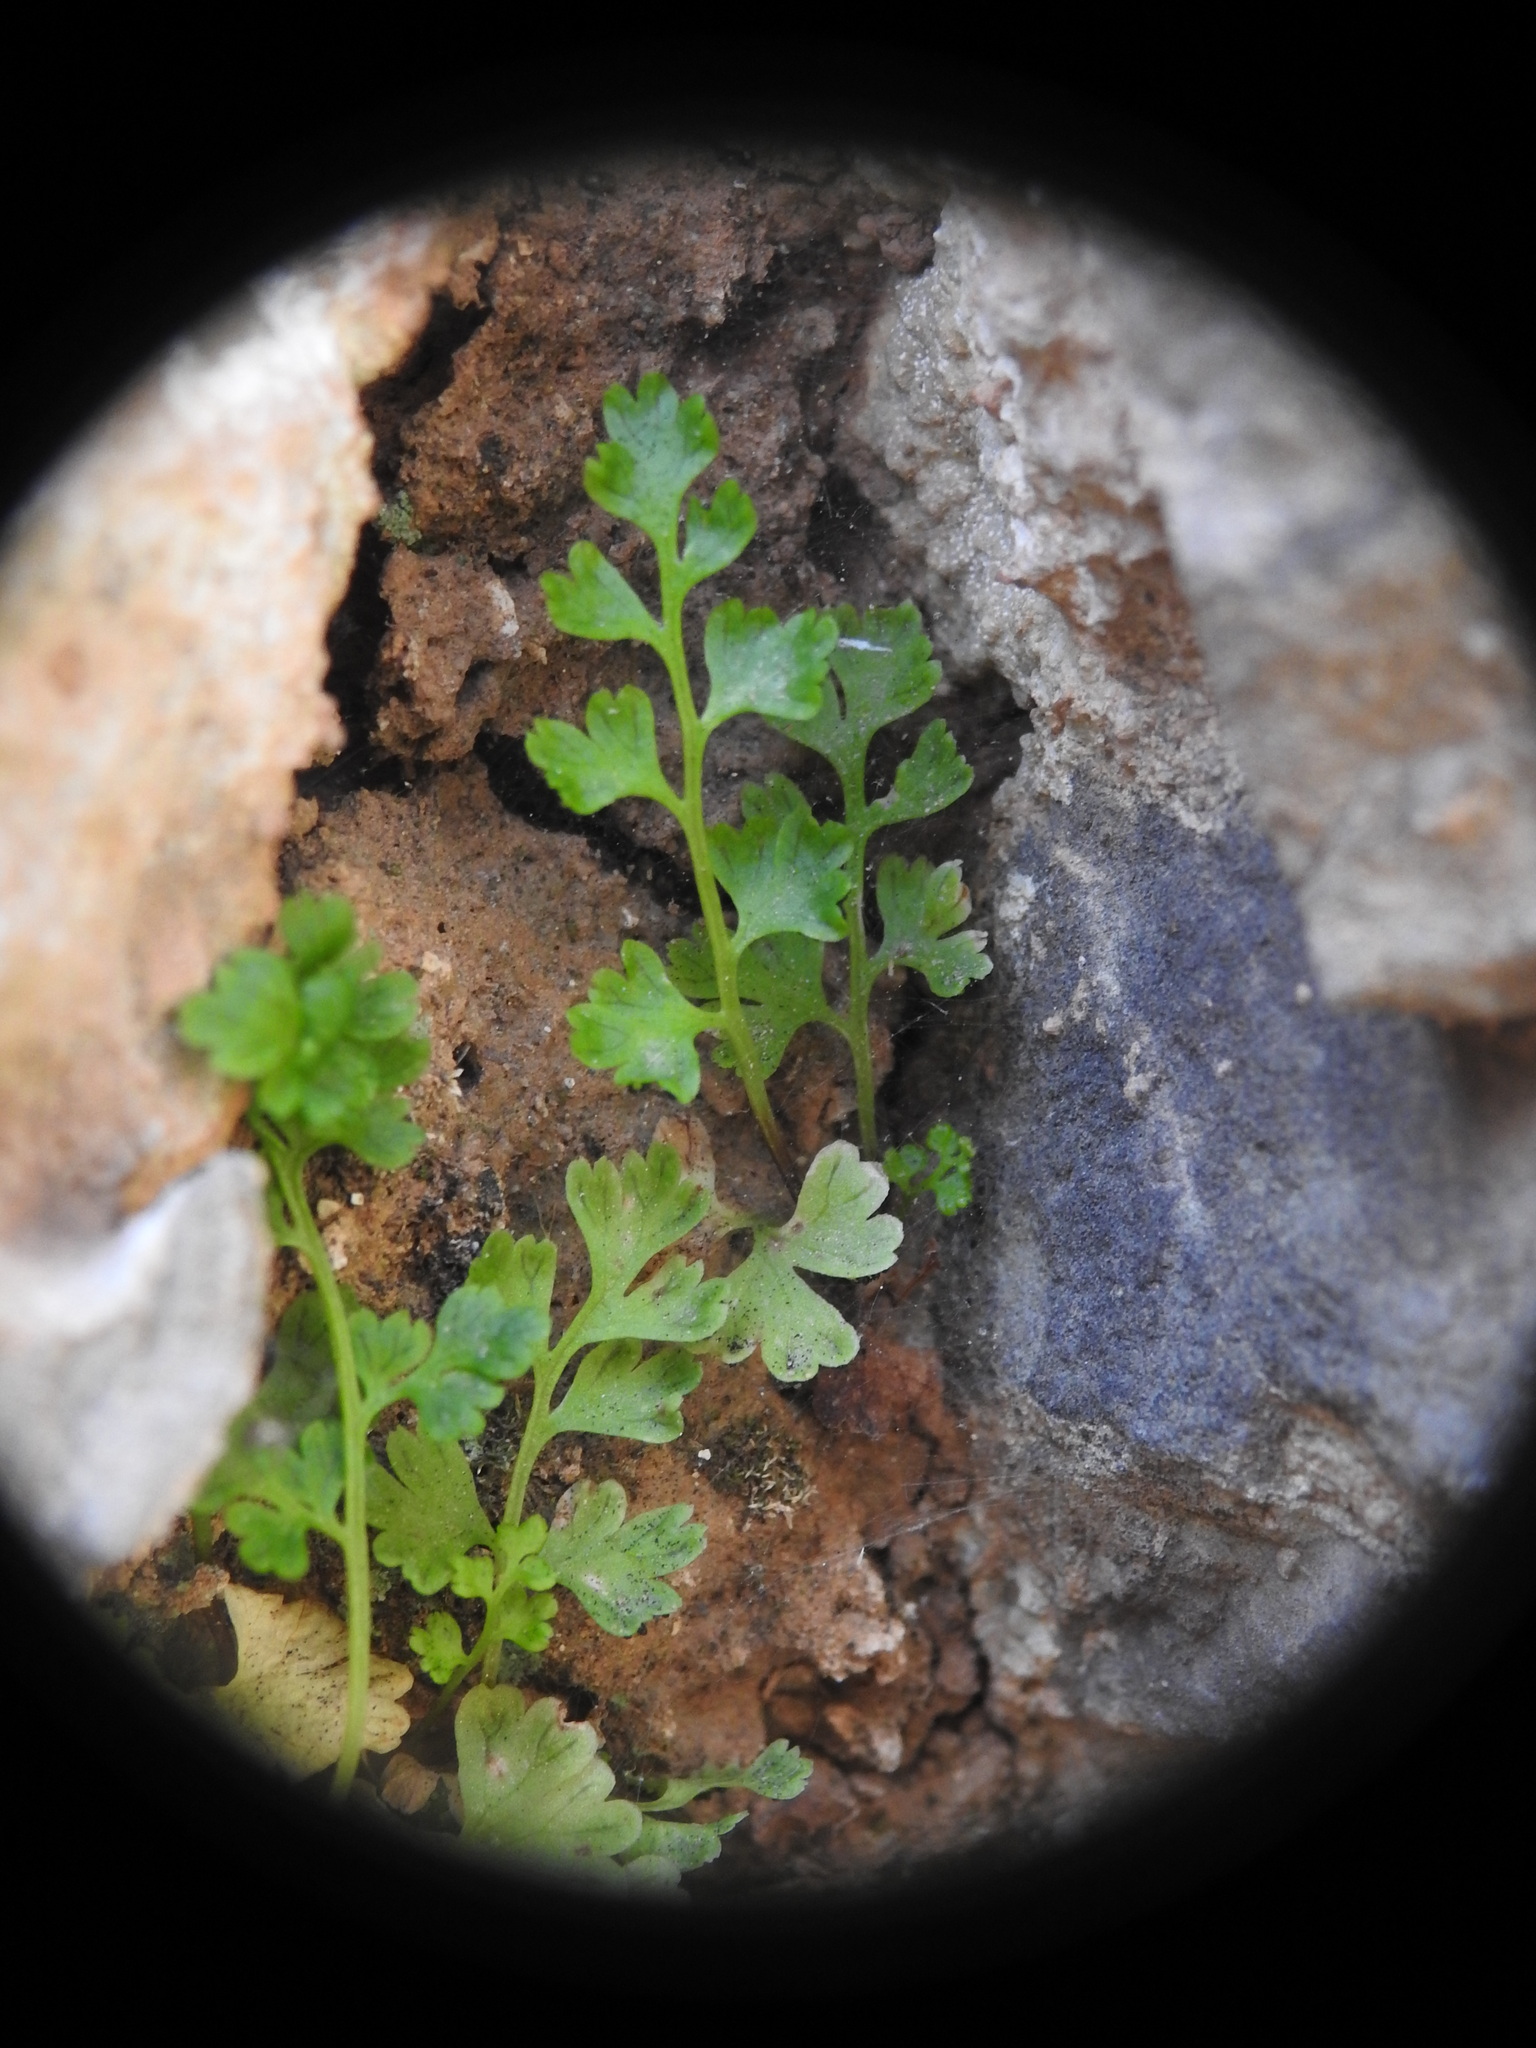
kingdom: Plantae
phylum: Tracheophyta
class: Polypodiopsida
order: Polypodiales
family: Pteridaceae
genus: Anogramma
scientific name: Anogramma leptophylla
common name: Jersey fern
